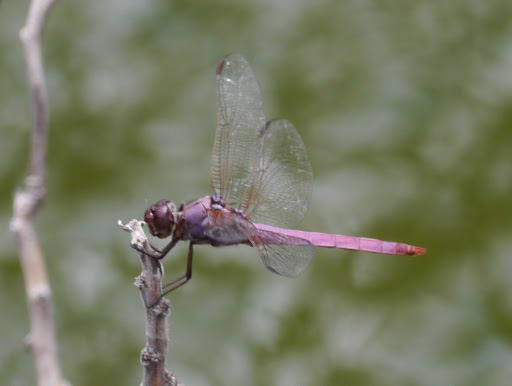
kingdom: Animalia
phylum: Arthropoda
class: Insecta
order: Odonata
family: Libellulidae
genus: Orthemis
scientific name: Orthemis ferruginea
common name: Roseate skimmer
